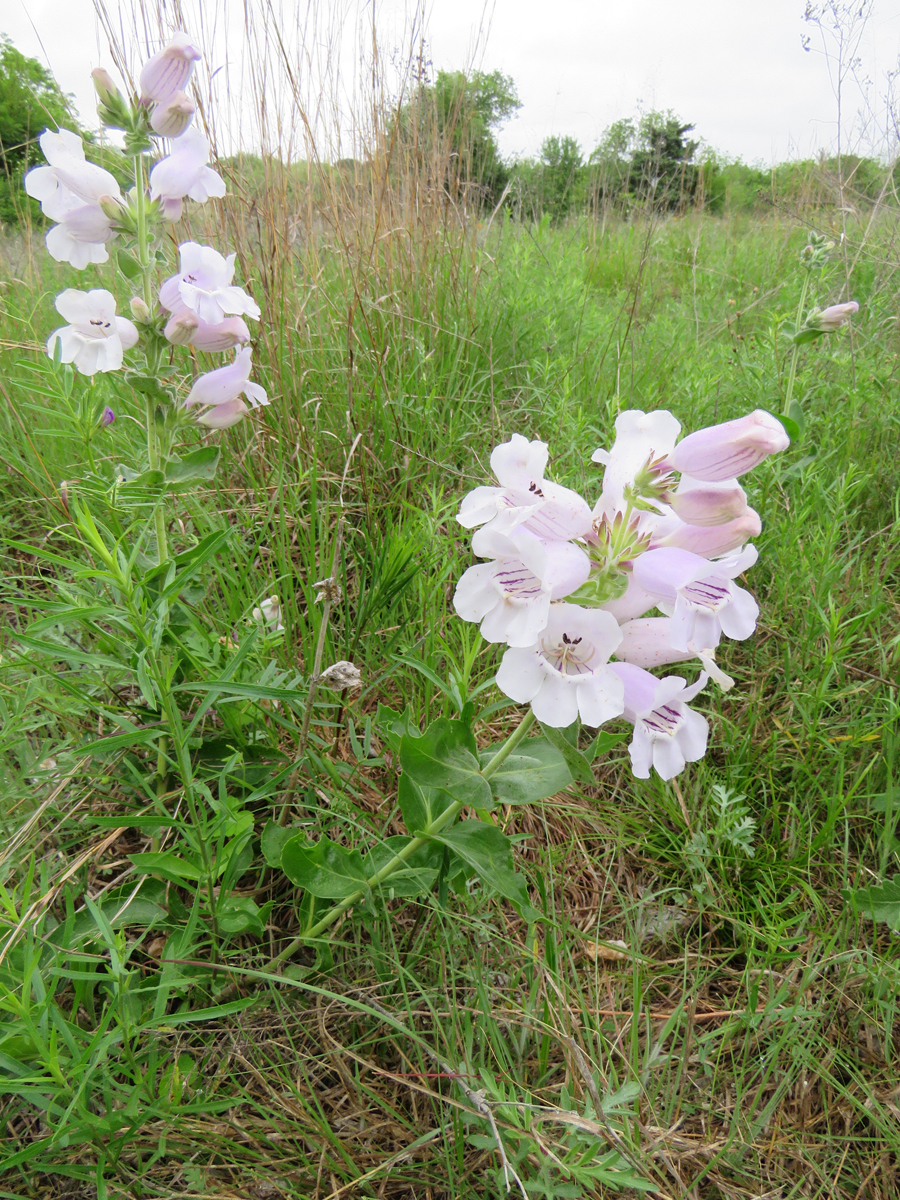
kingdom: Plantae
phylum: Tracheophyta
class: Magnoliopsida
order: Lamiales
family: Plantaginaceae
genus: Penstemon
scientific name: Penstemon cobaea
